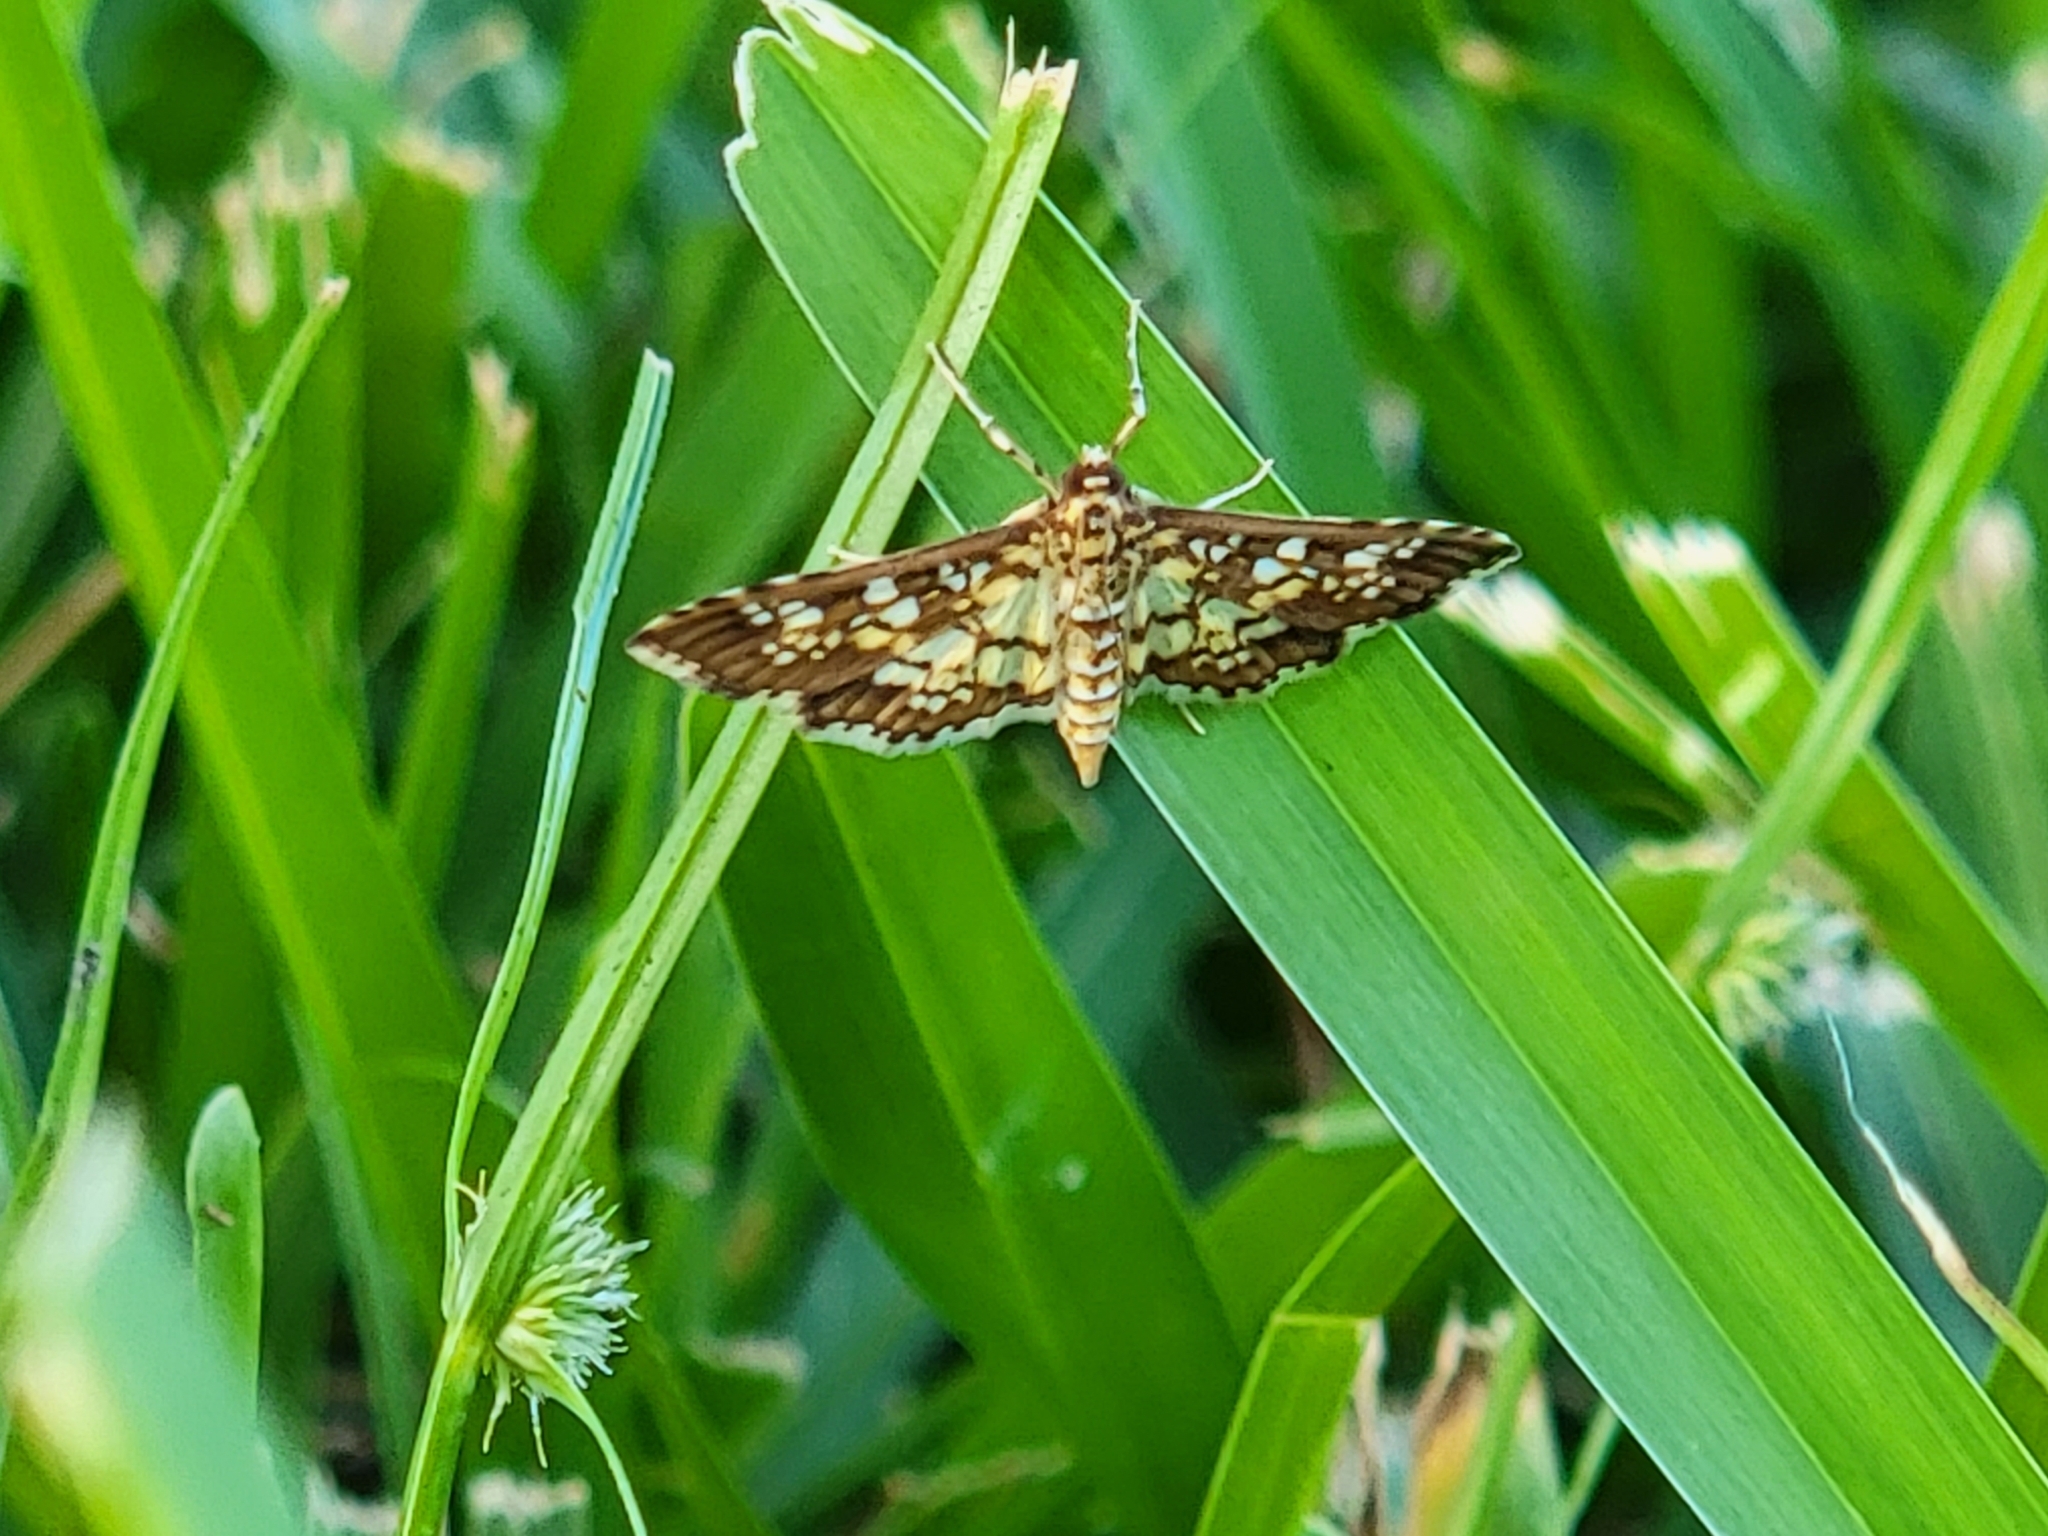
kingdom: Animalia
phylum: Arthropoda
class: Insecta
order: Lepidoptera
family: Crambidae
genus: Samea
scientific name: Samea ecclesialis
